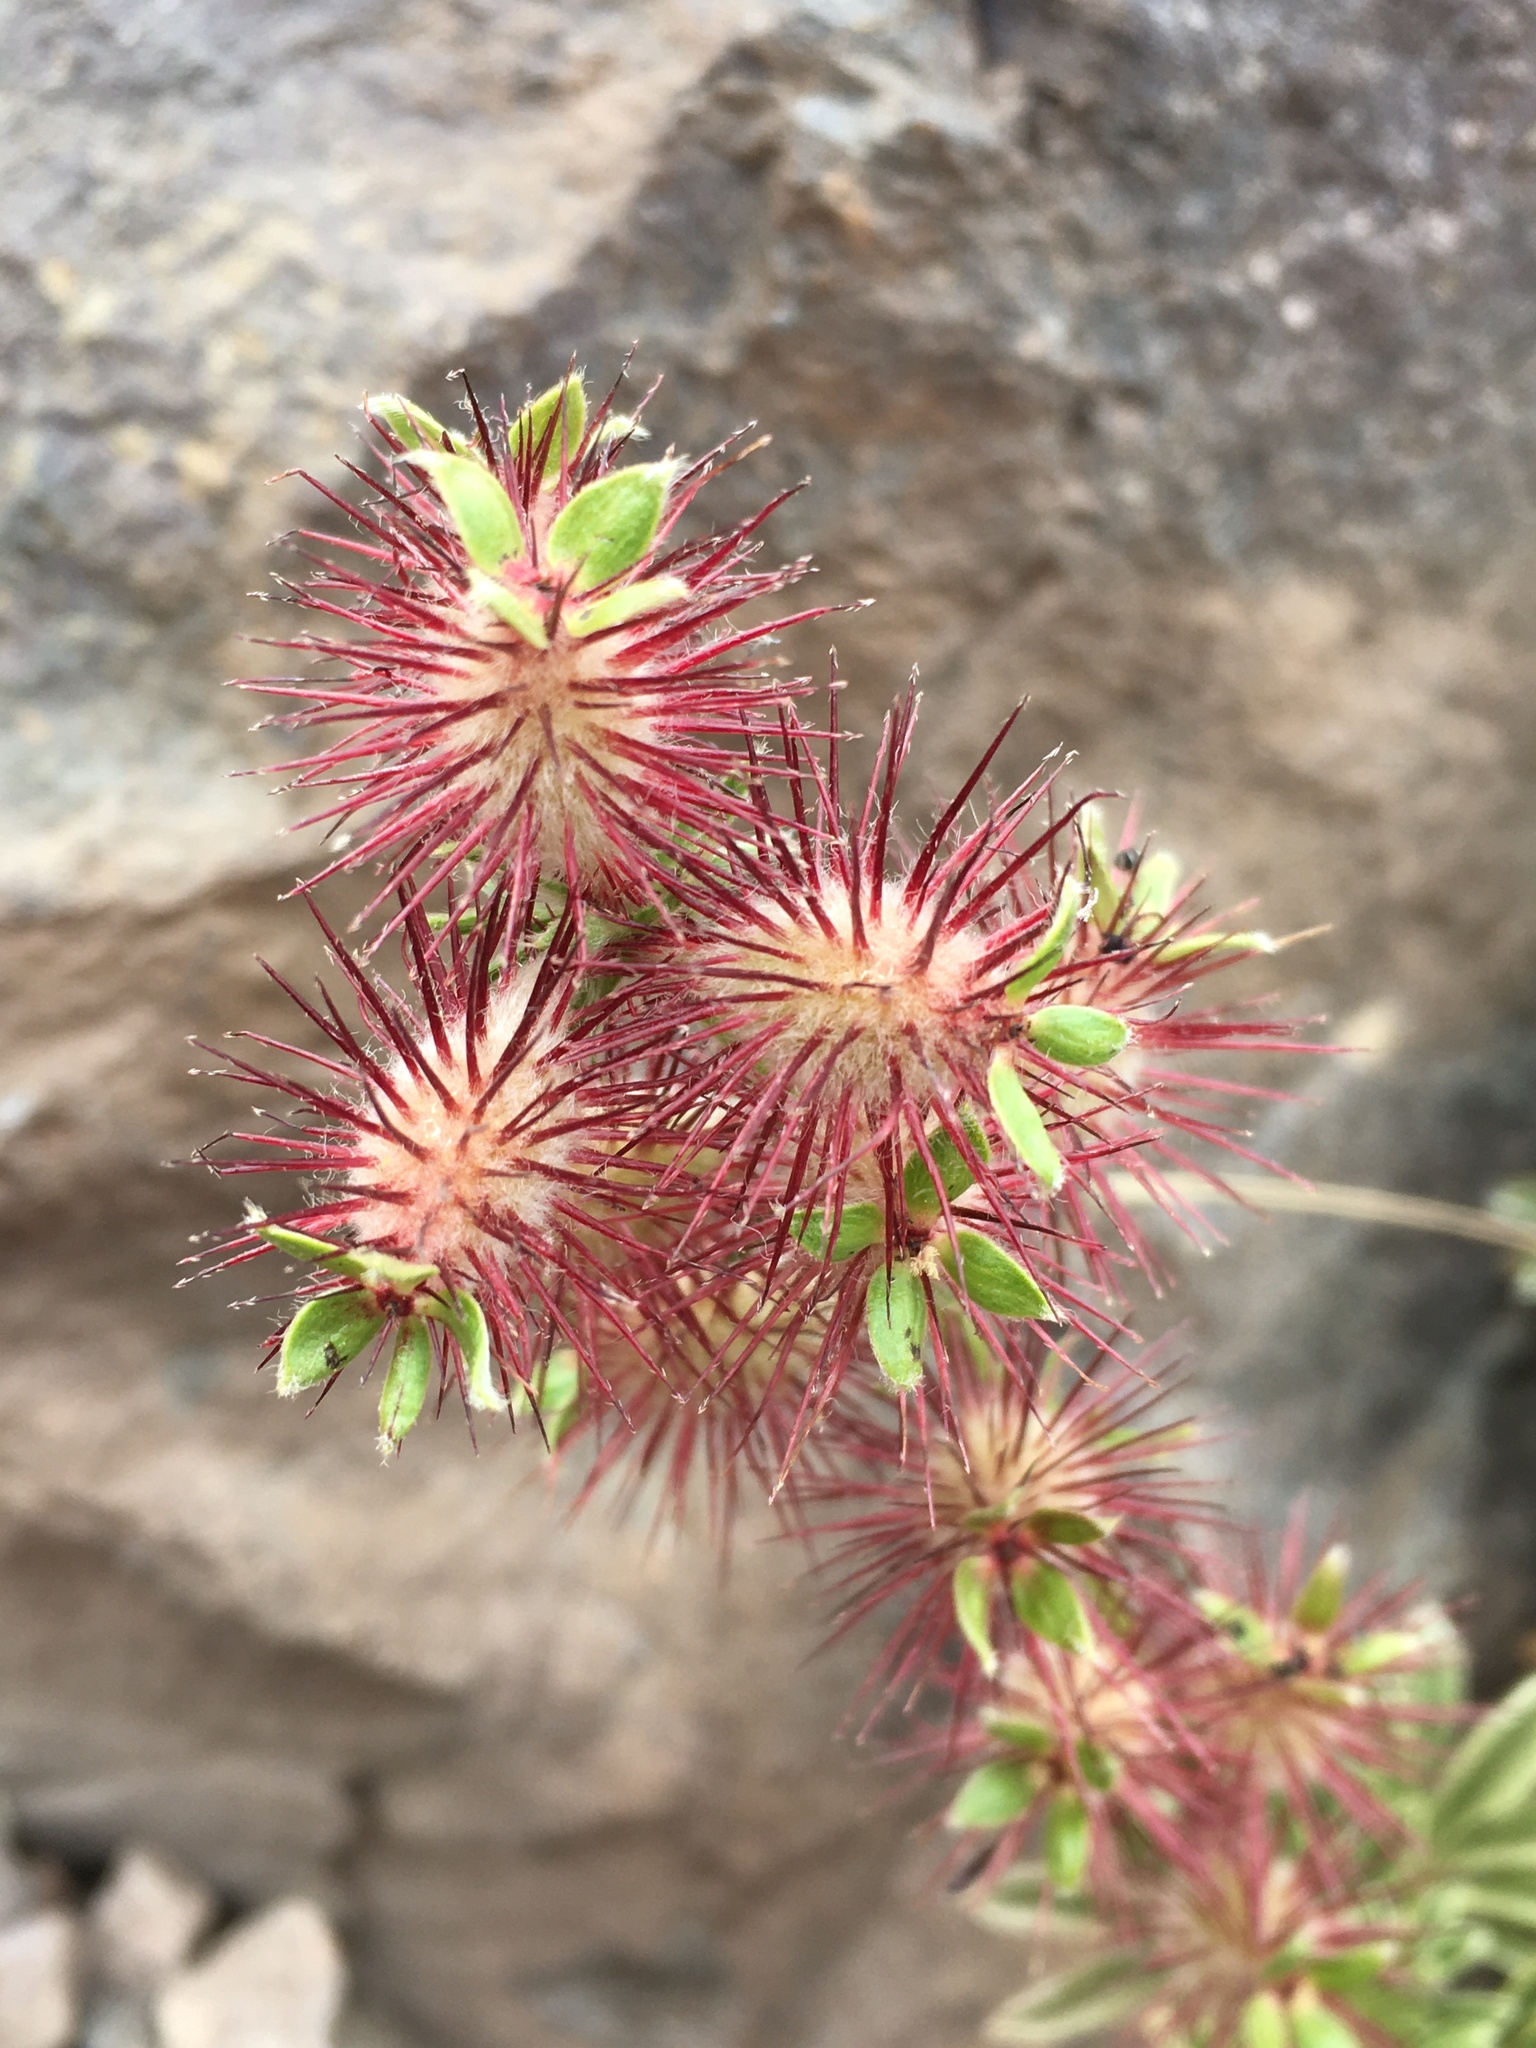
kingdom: Plantae
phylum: Tracheophyta
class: Magnoliopsida
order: Rosales
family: Rosaceae
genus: Acaena
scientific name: Acaena alpina
